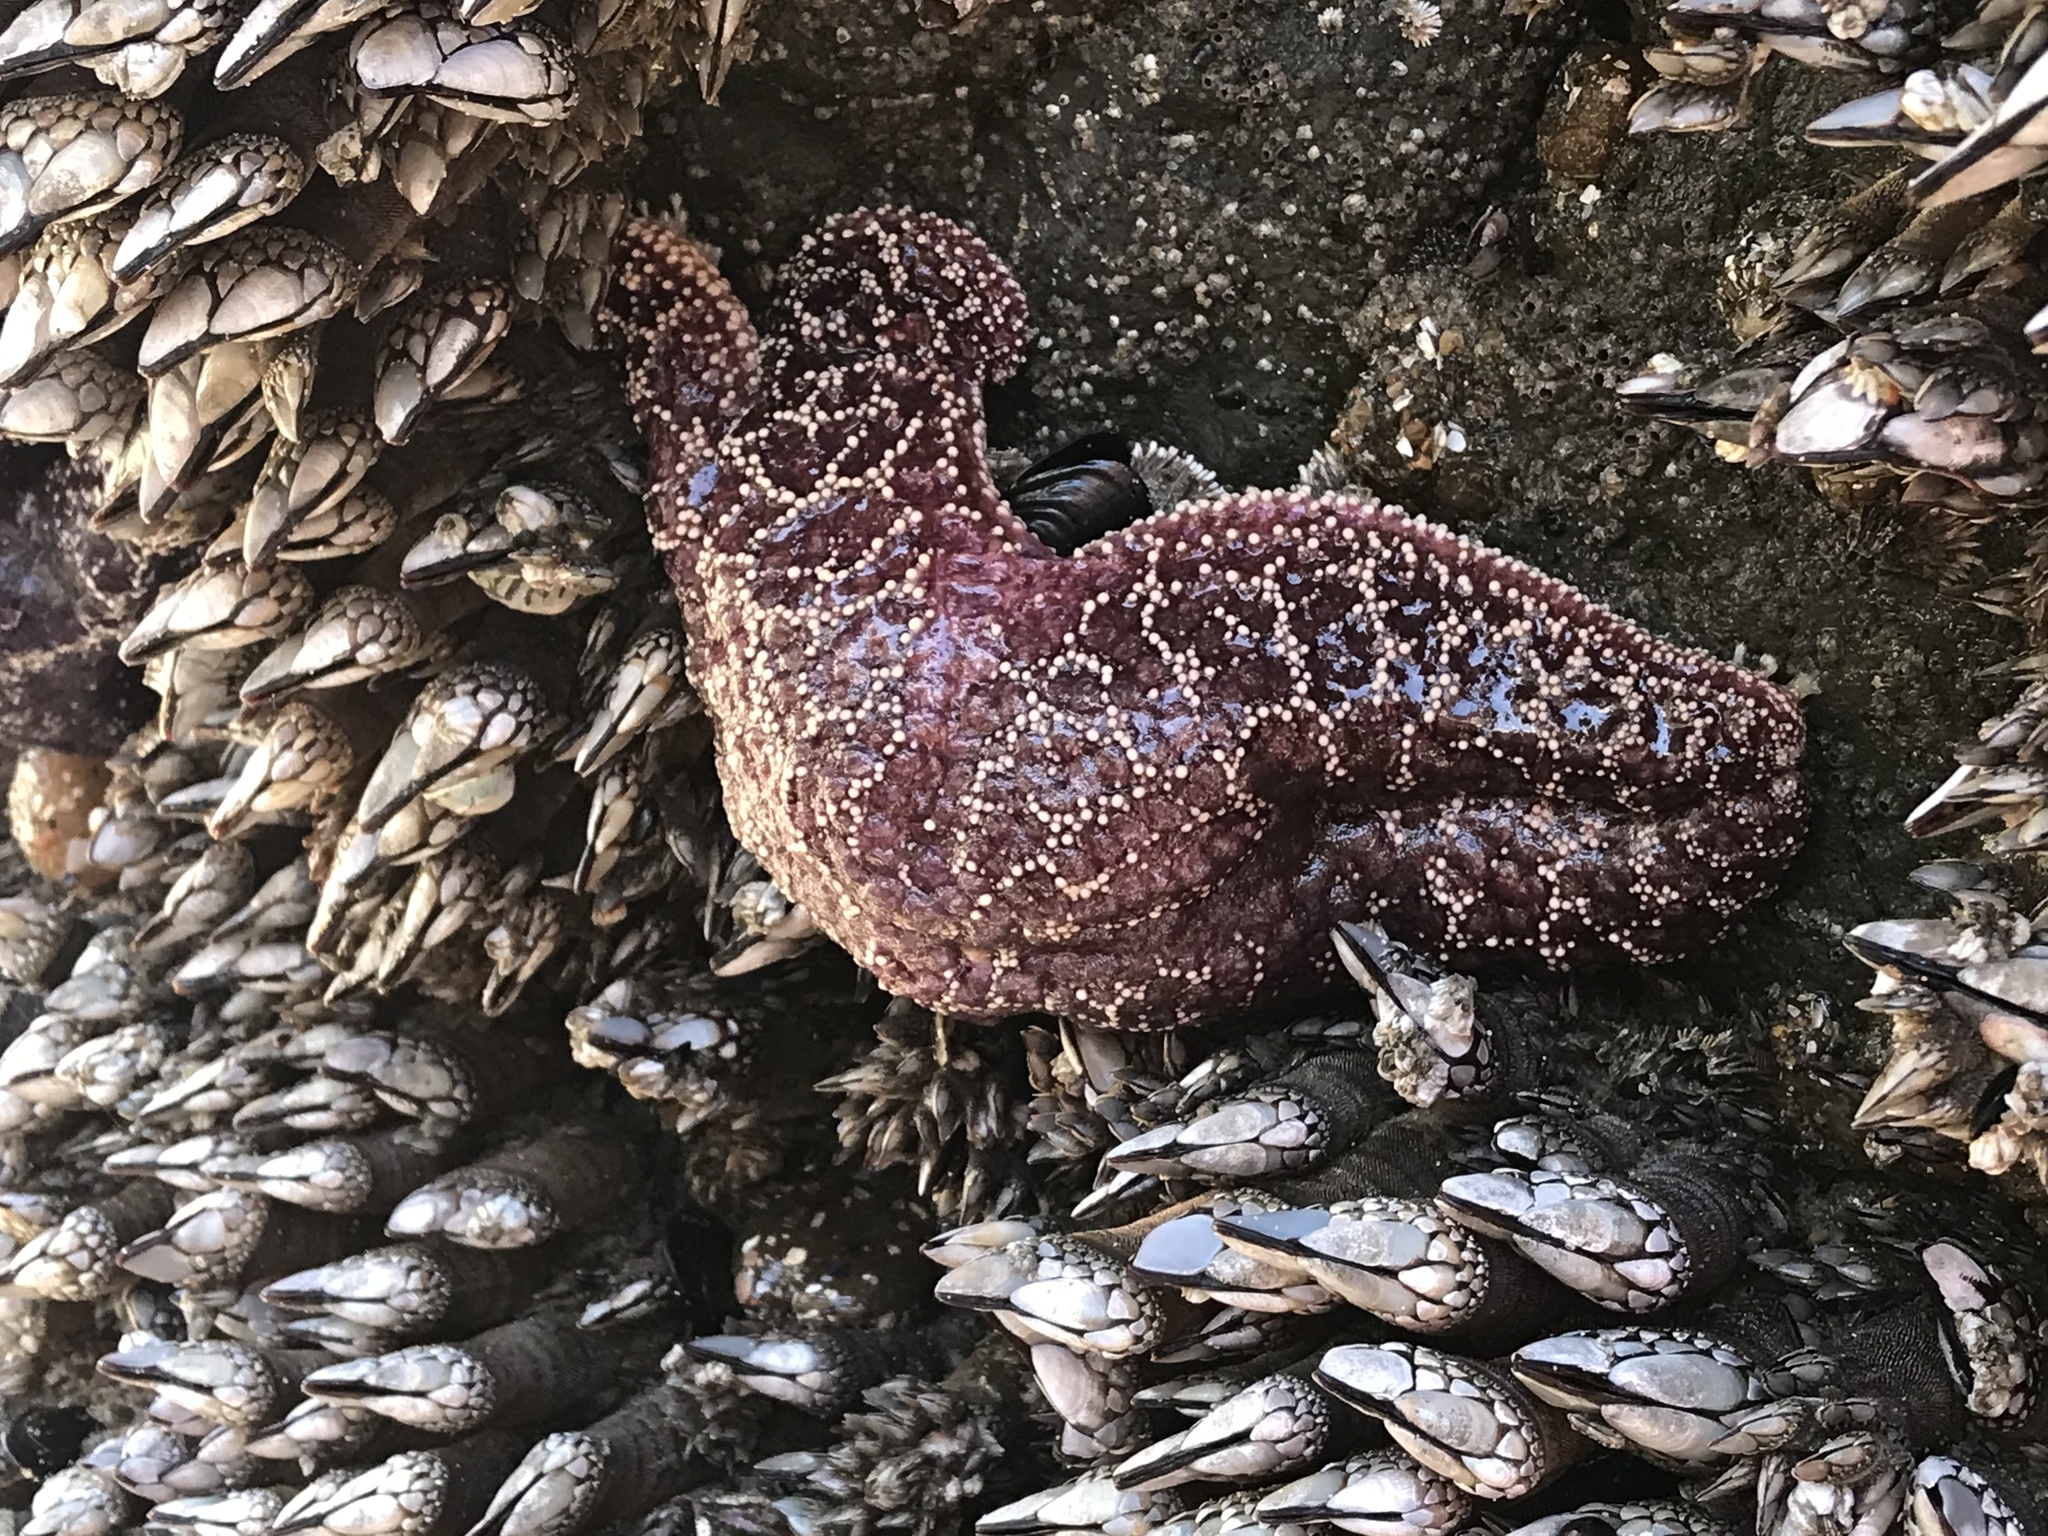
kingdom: Animalia
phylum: Echinodermata
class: Asteroidea
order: Forcipulatida
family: Asteriidae
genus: Pisaster
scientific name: Pisaster ochraceus
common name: Ochre stars
